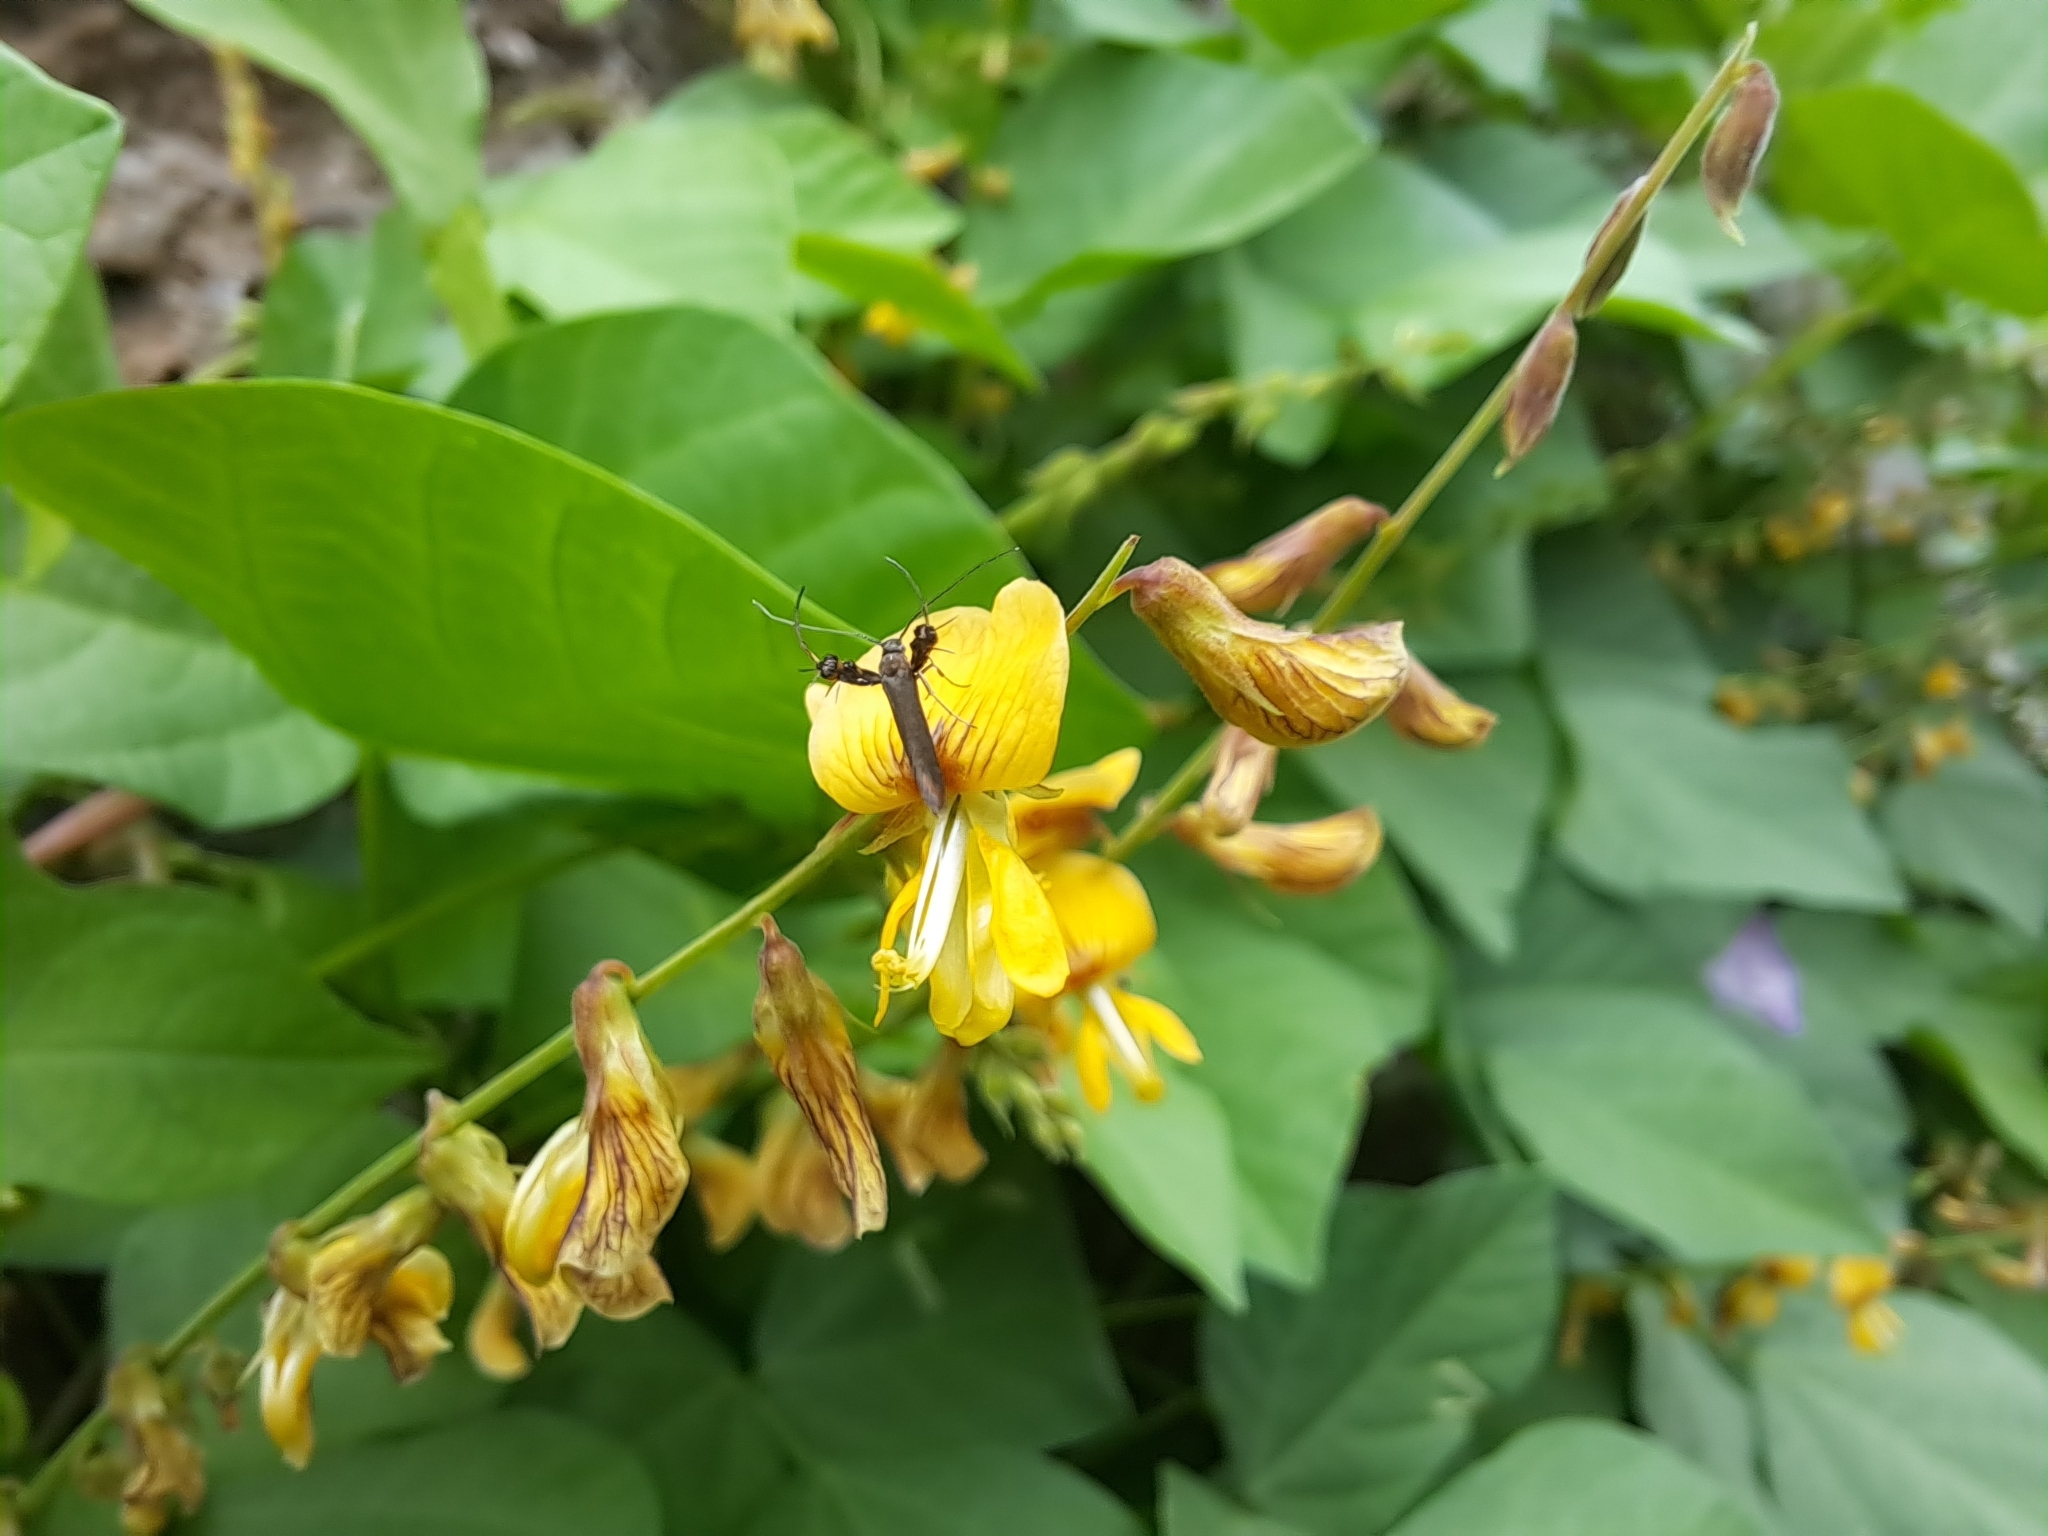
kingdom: Animalia
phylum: Arthropoda
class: Insecta
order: Lepidoptera
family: Heliodinidae
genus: Heliodines
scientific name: Heliodines
